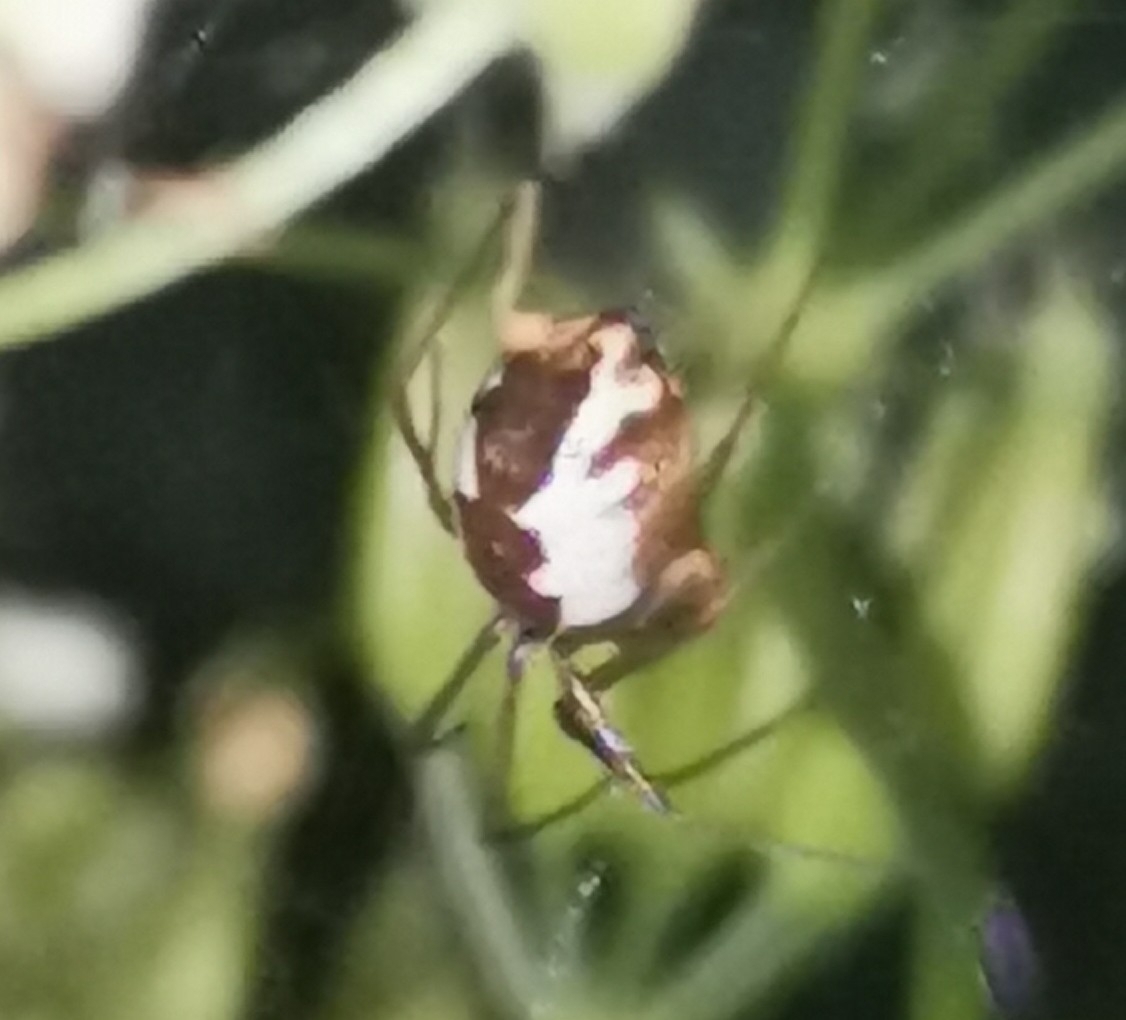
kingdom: Animalia
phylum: Arthropoda
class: Arachnida
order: Araneae
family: Linyphiidae
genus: Neriene
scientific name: Neriene peltata
